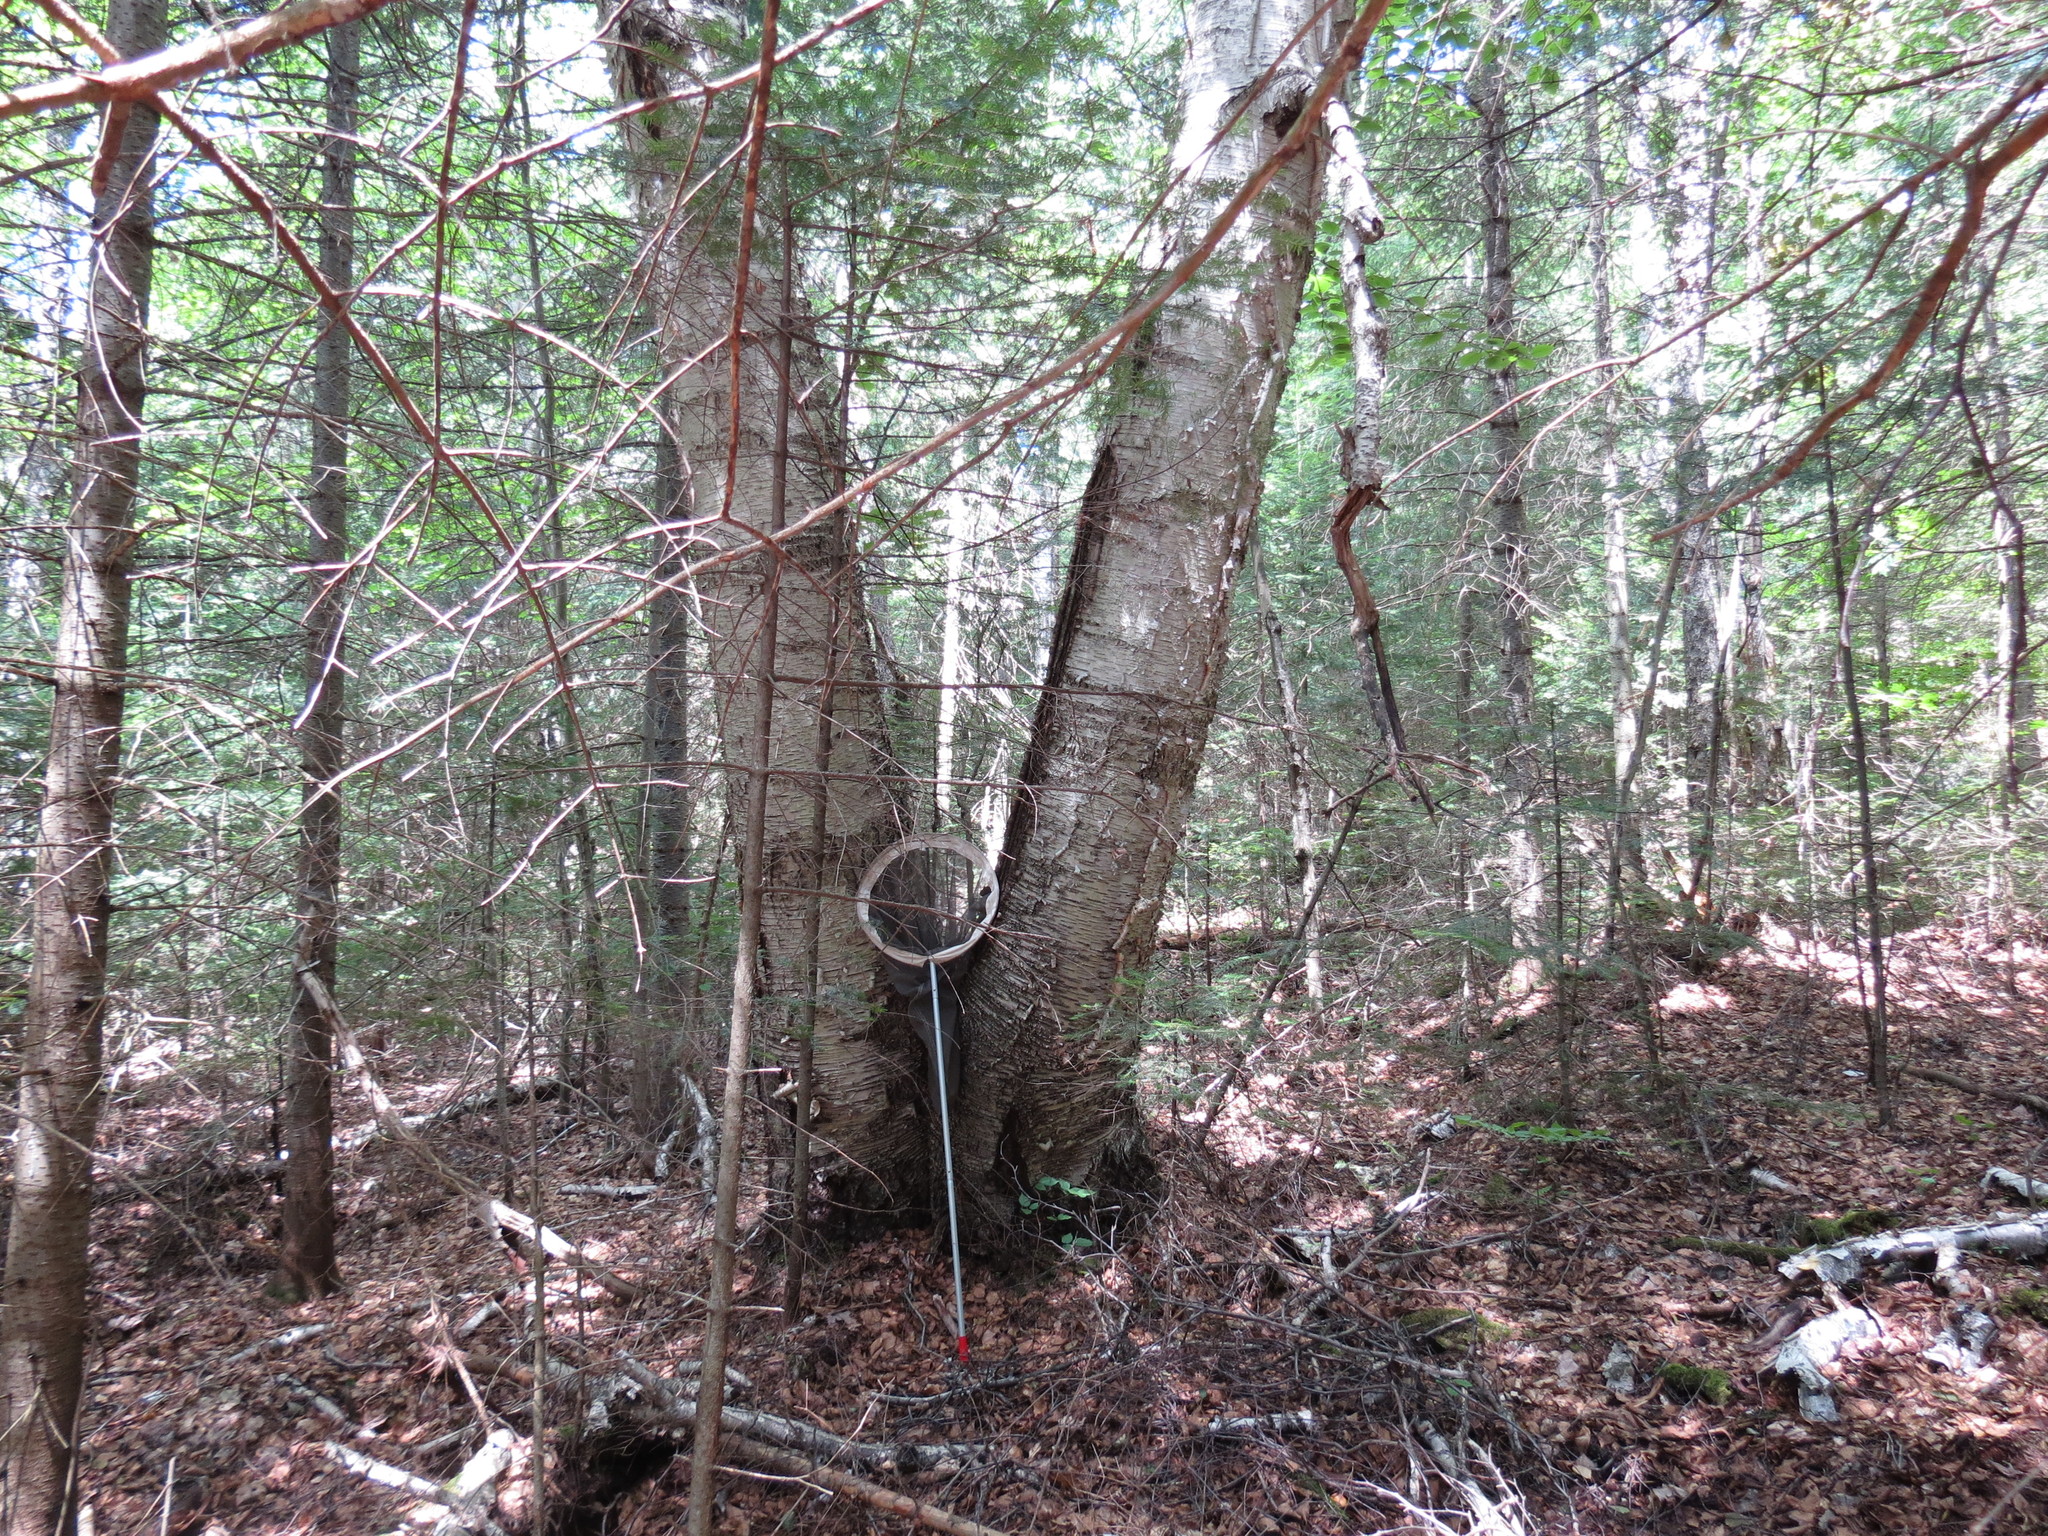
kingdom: Plantae
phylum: Tracheophyta
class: Magnoliopsida
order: Fagales
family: Betulaceae
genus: Betula
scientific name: Betula papyrifera
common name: Paper birch
